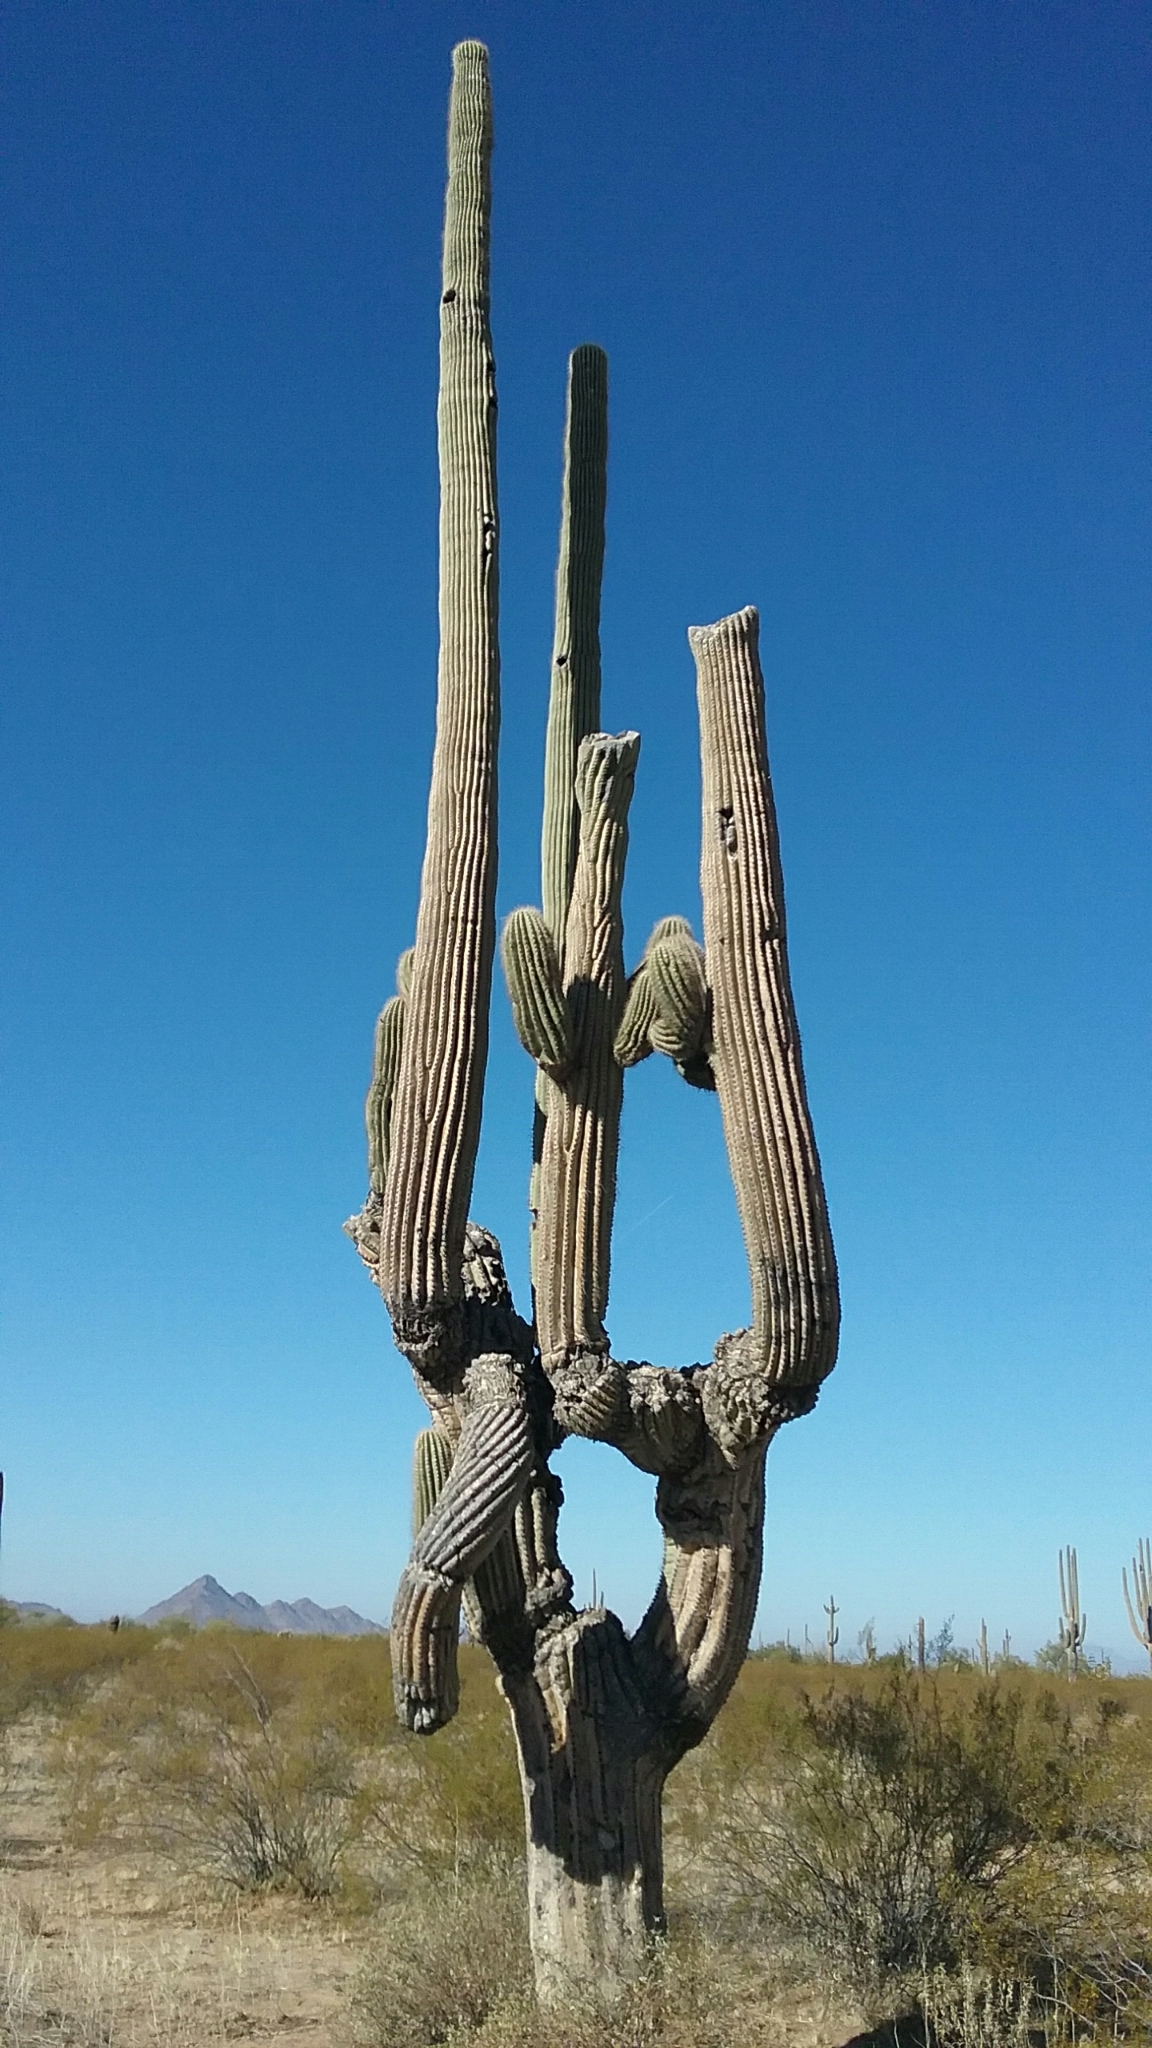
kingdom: Plantae
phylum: Tracheophyta
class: Magnoliopsida
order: Caryophyllales
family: Cactaceae
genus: Carnegiea
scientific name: Carnegiea gigantea
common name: Saguaro
